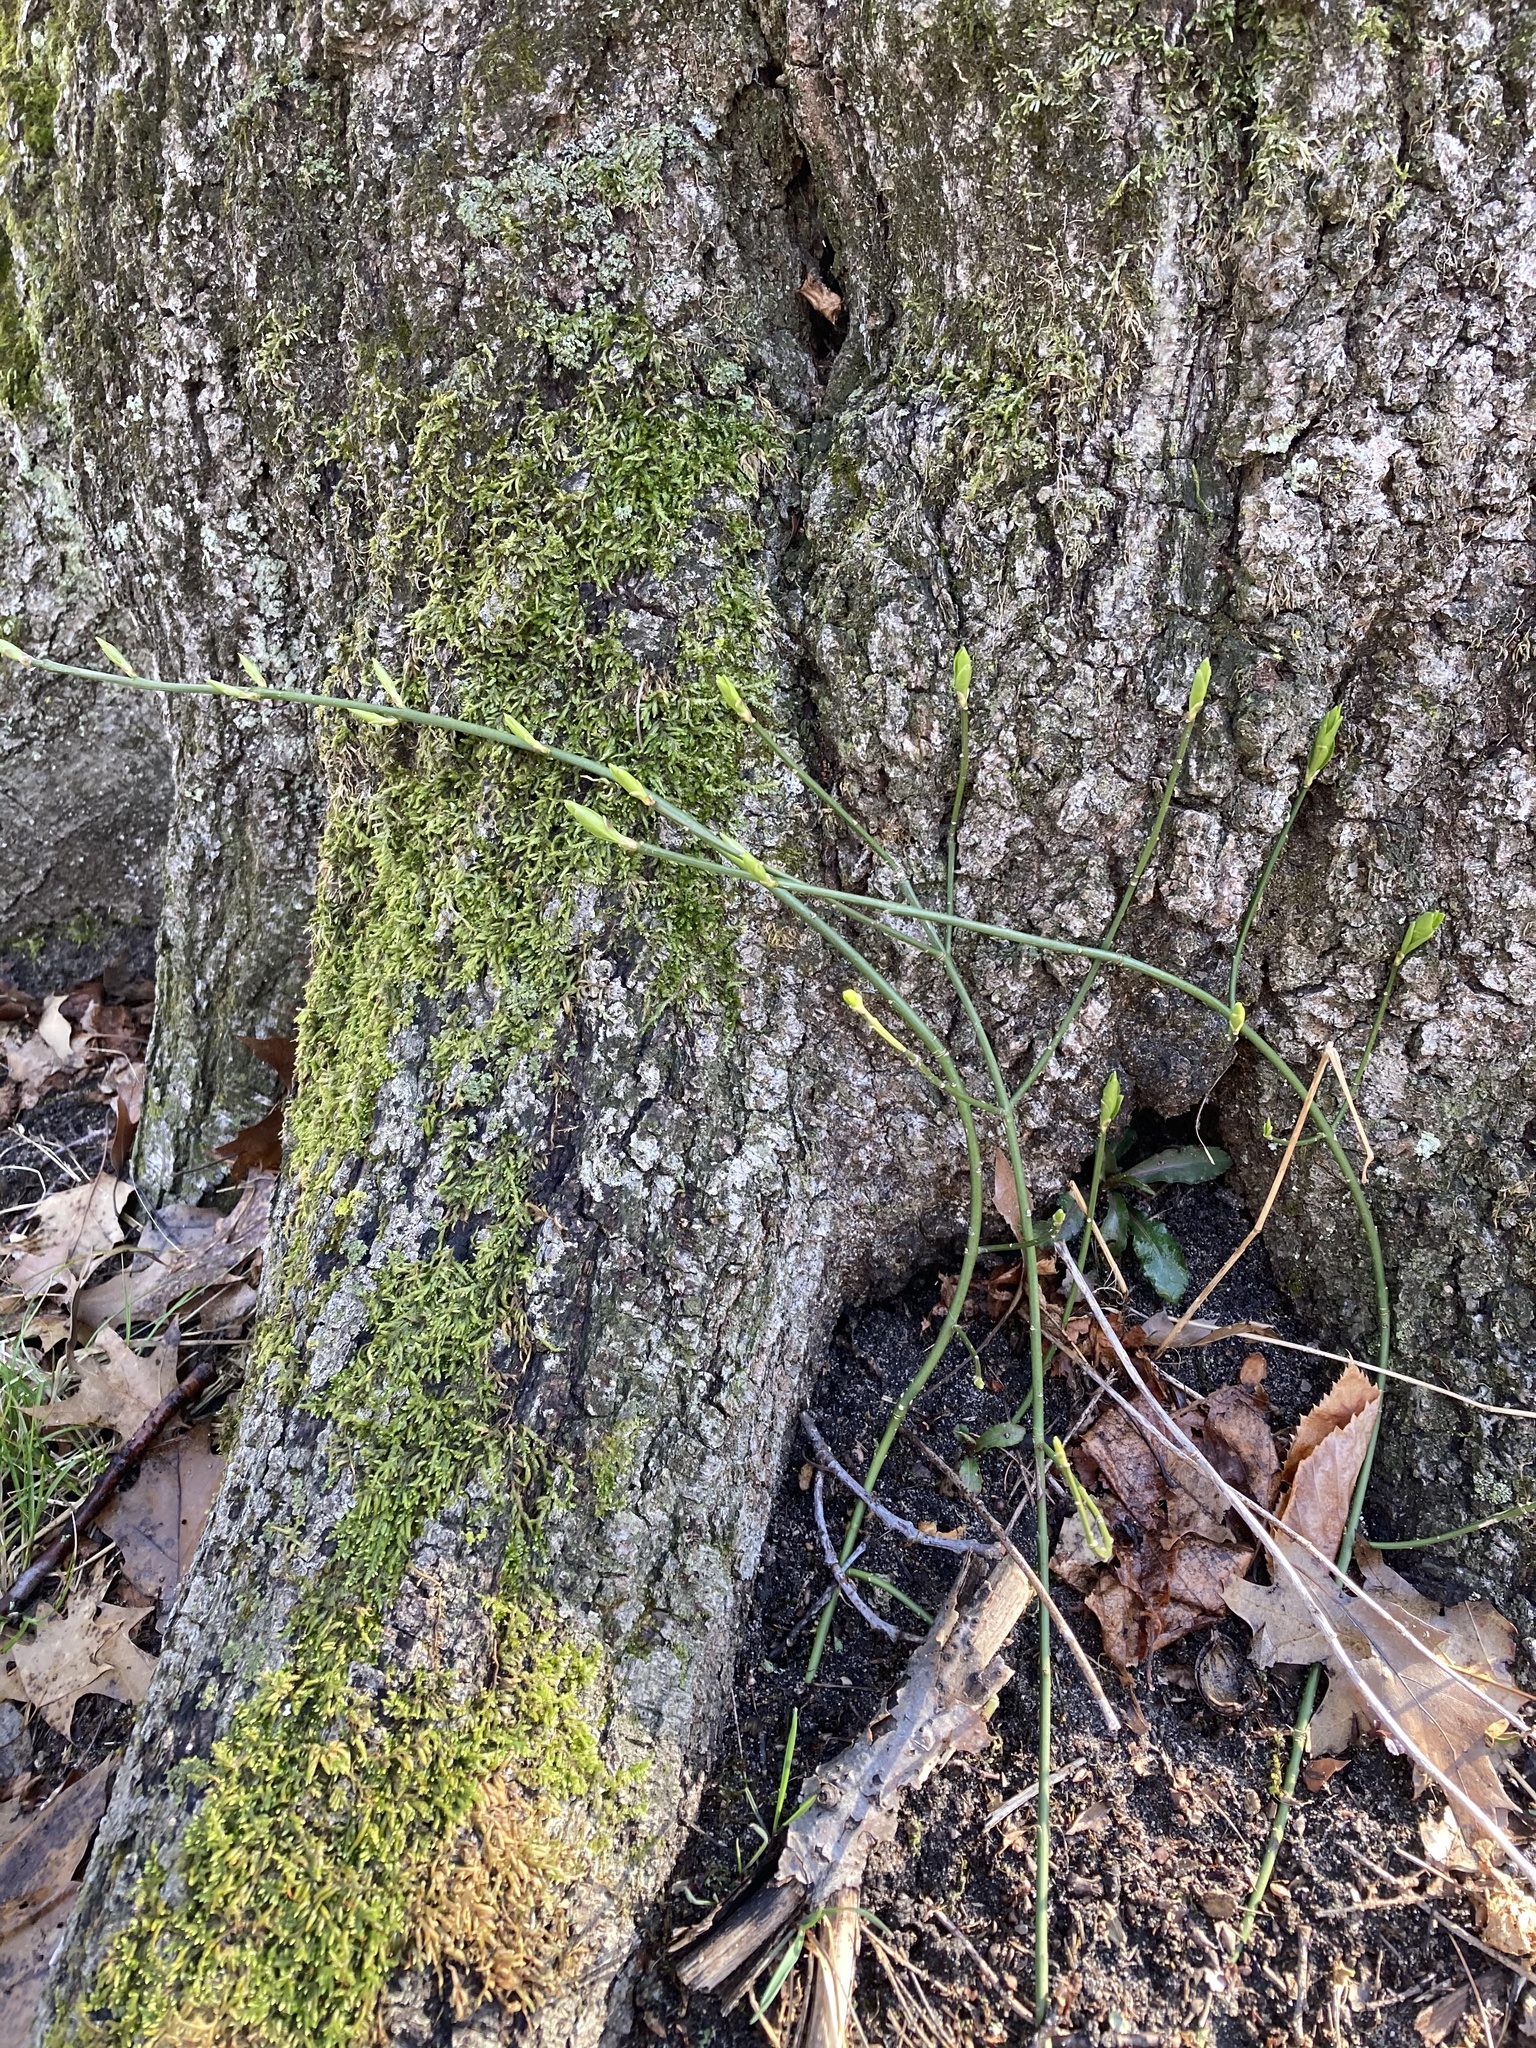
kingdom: Plantae
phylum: Tracheophyta
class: Magnoliopsida
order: Celastrales
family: Celastraceae
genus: Euonymus
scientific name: Euonymus obovatus
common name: Running strawberry-bush
